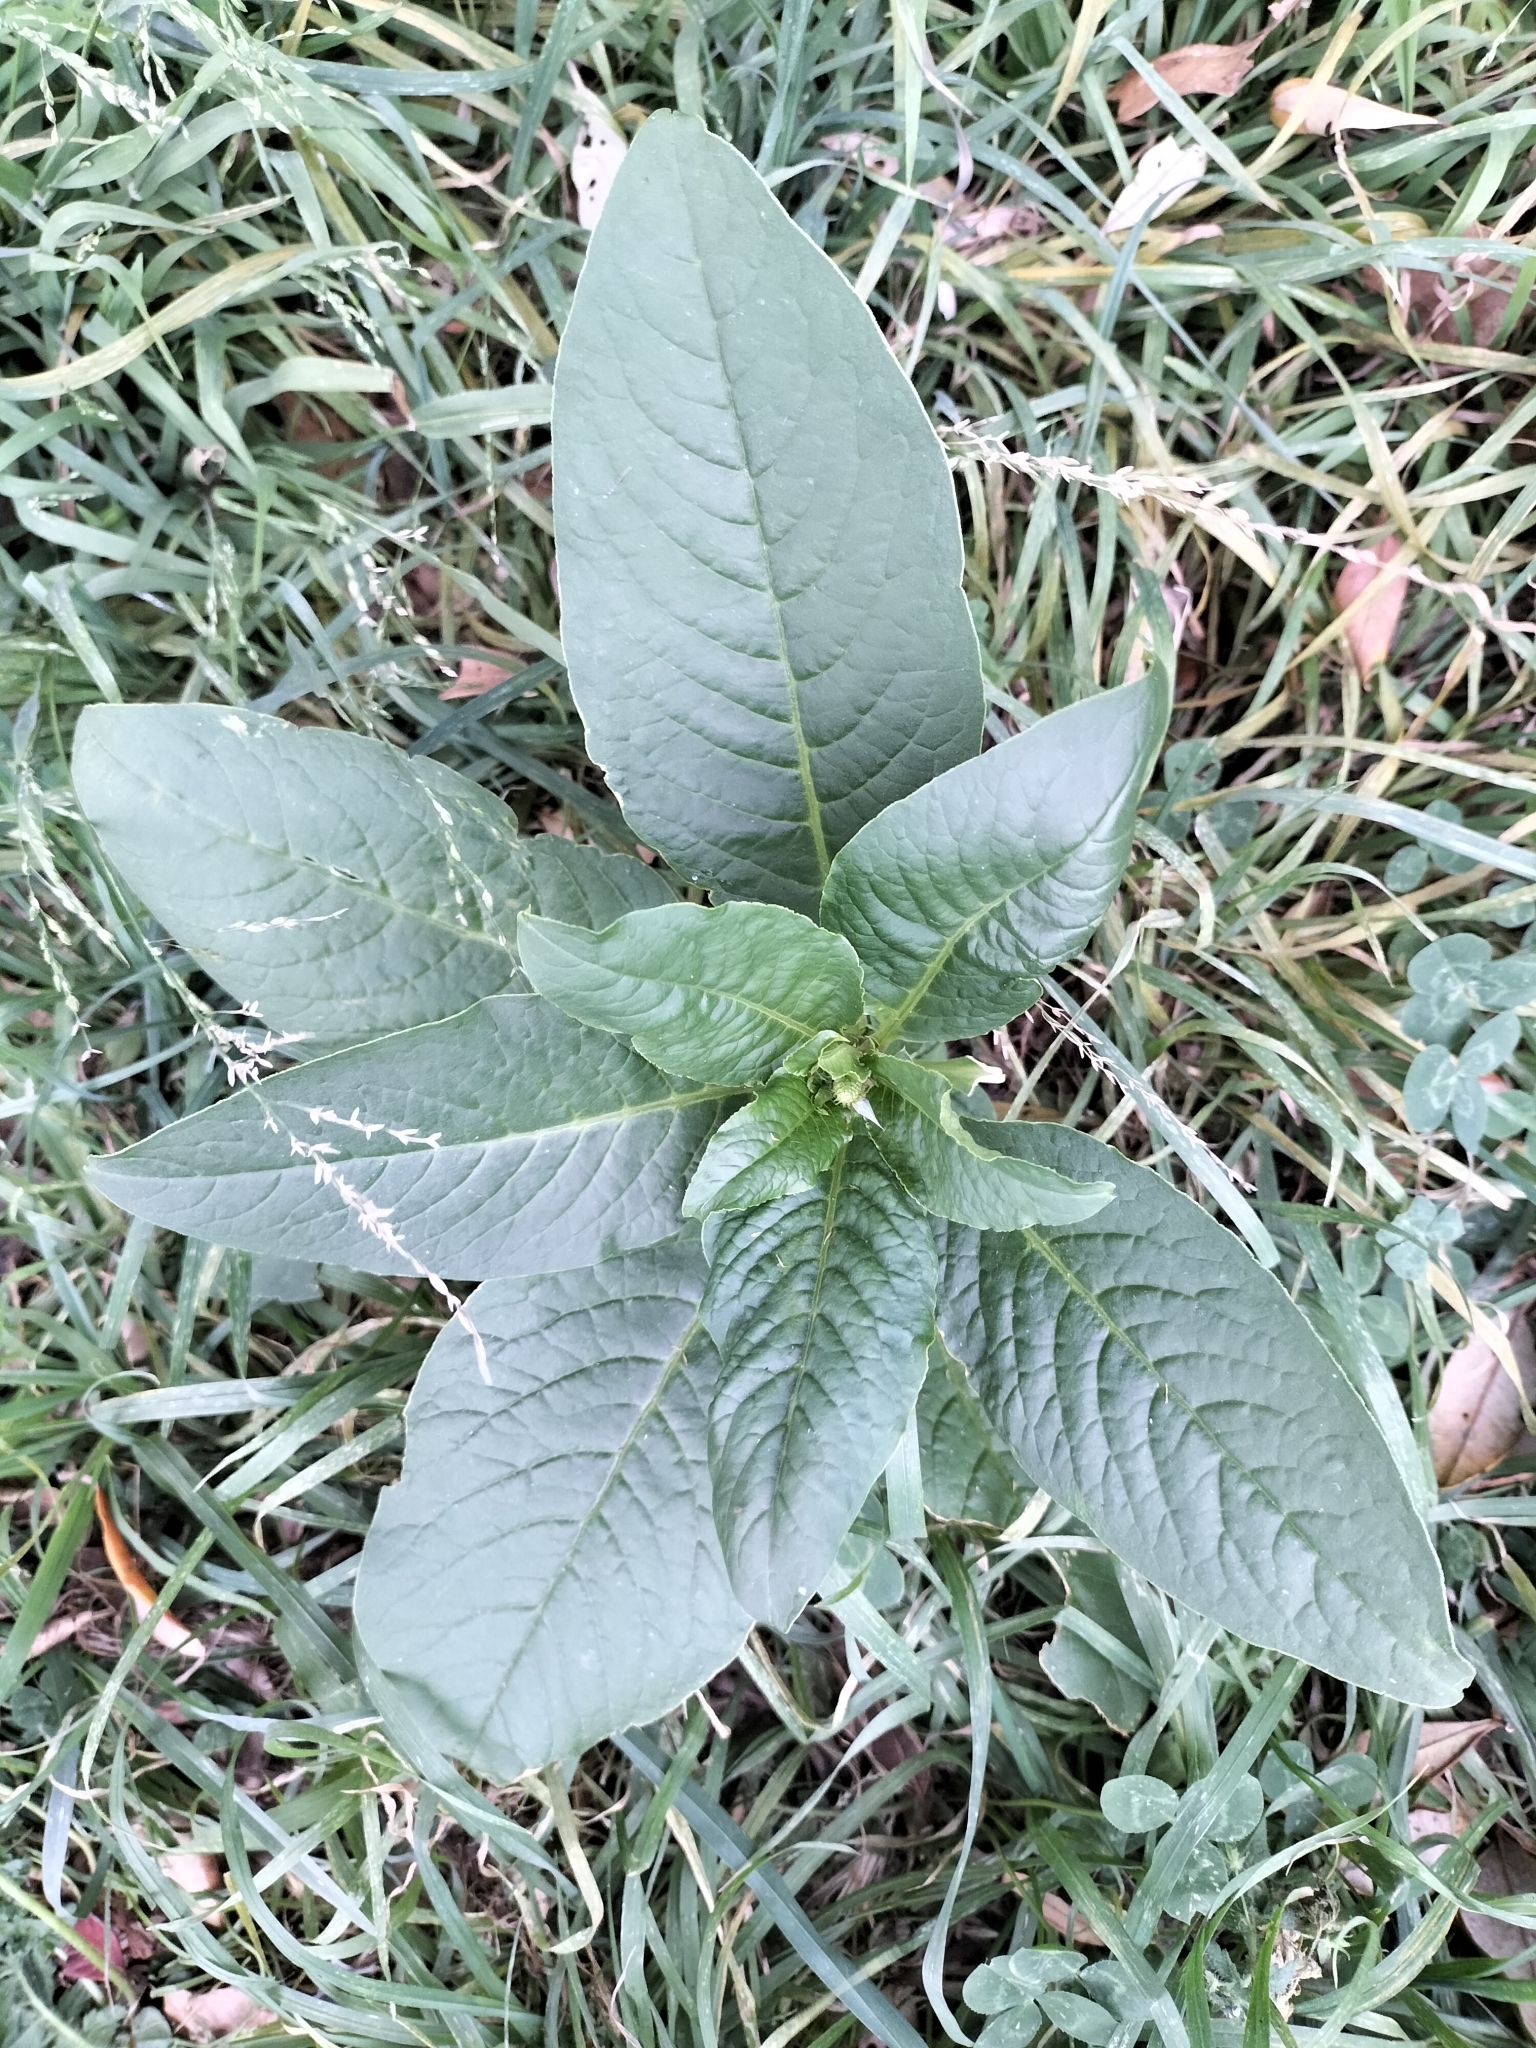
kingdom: Plantae
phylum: Tracheophyta
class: Magnoliopsida
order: Caryophyllales
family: Phytolaccaceae
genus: Phytolacca
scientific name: Phytolacca icosandra
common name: Button pokeweed
